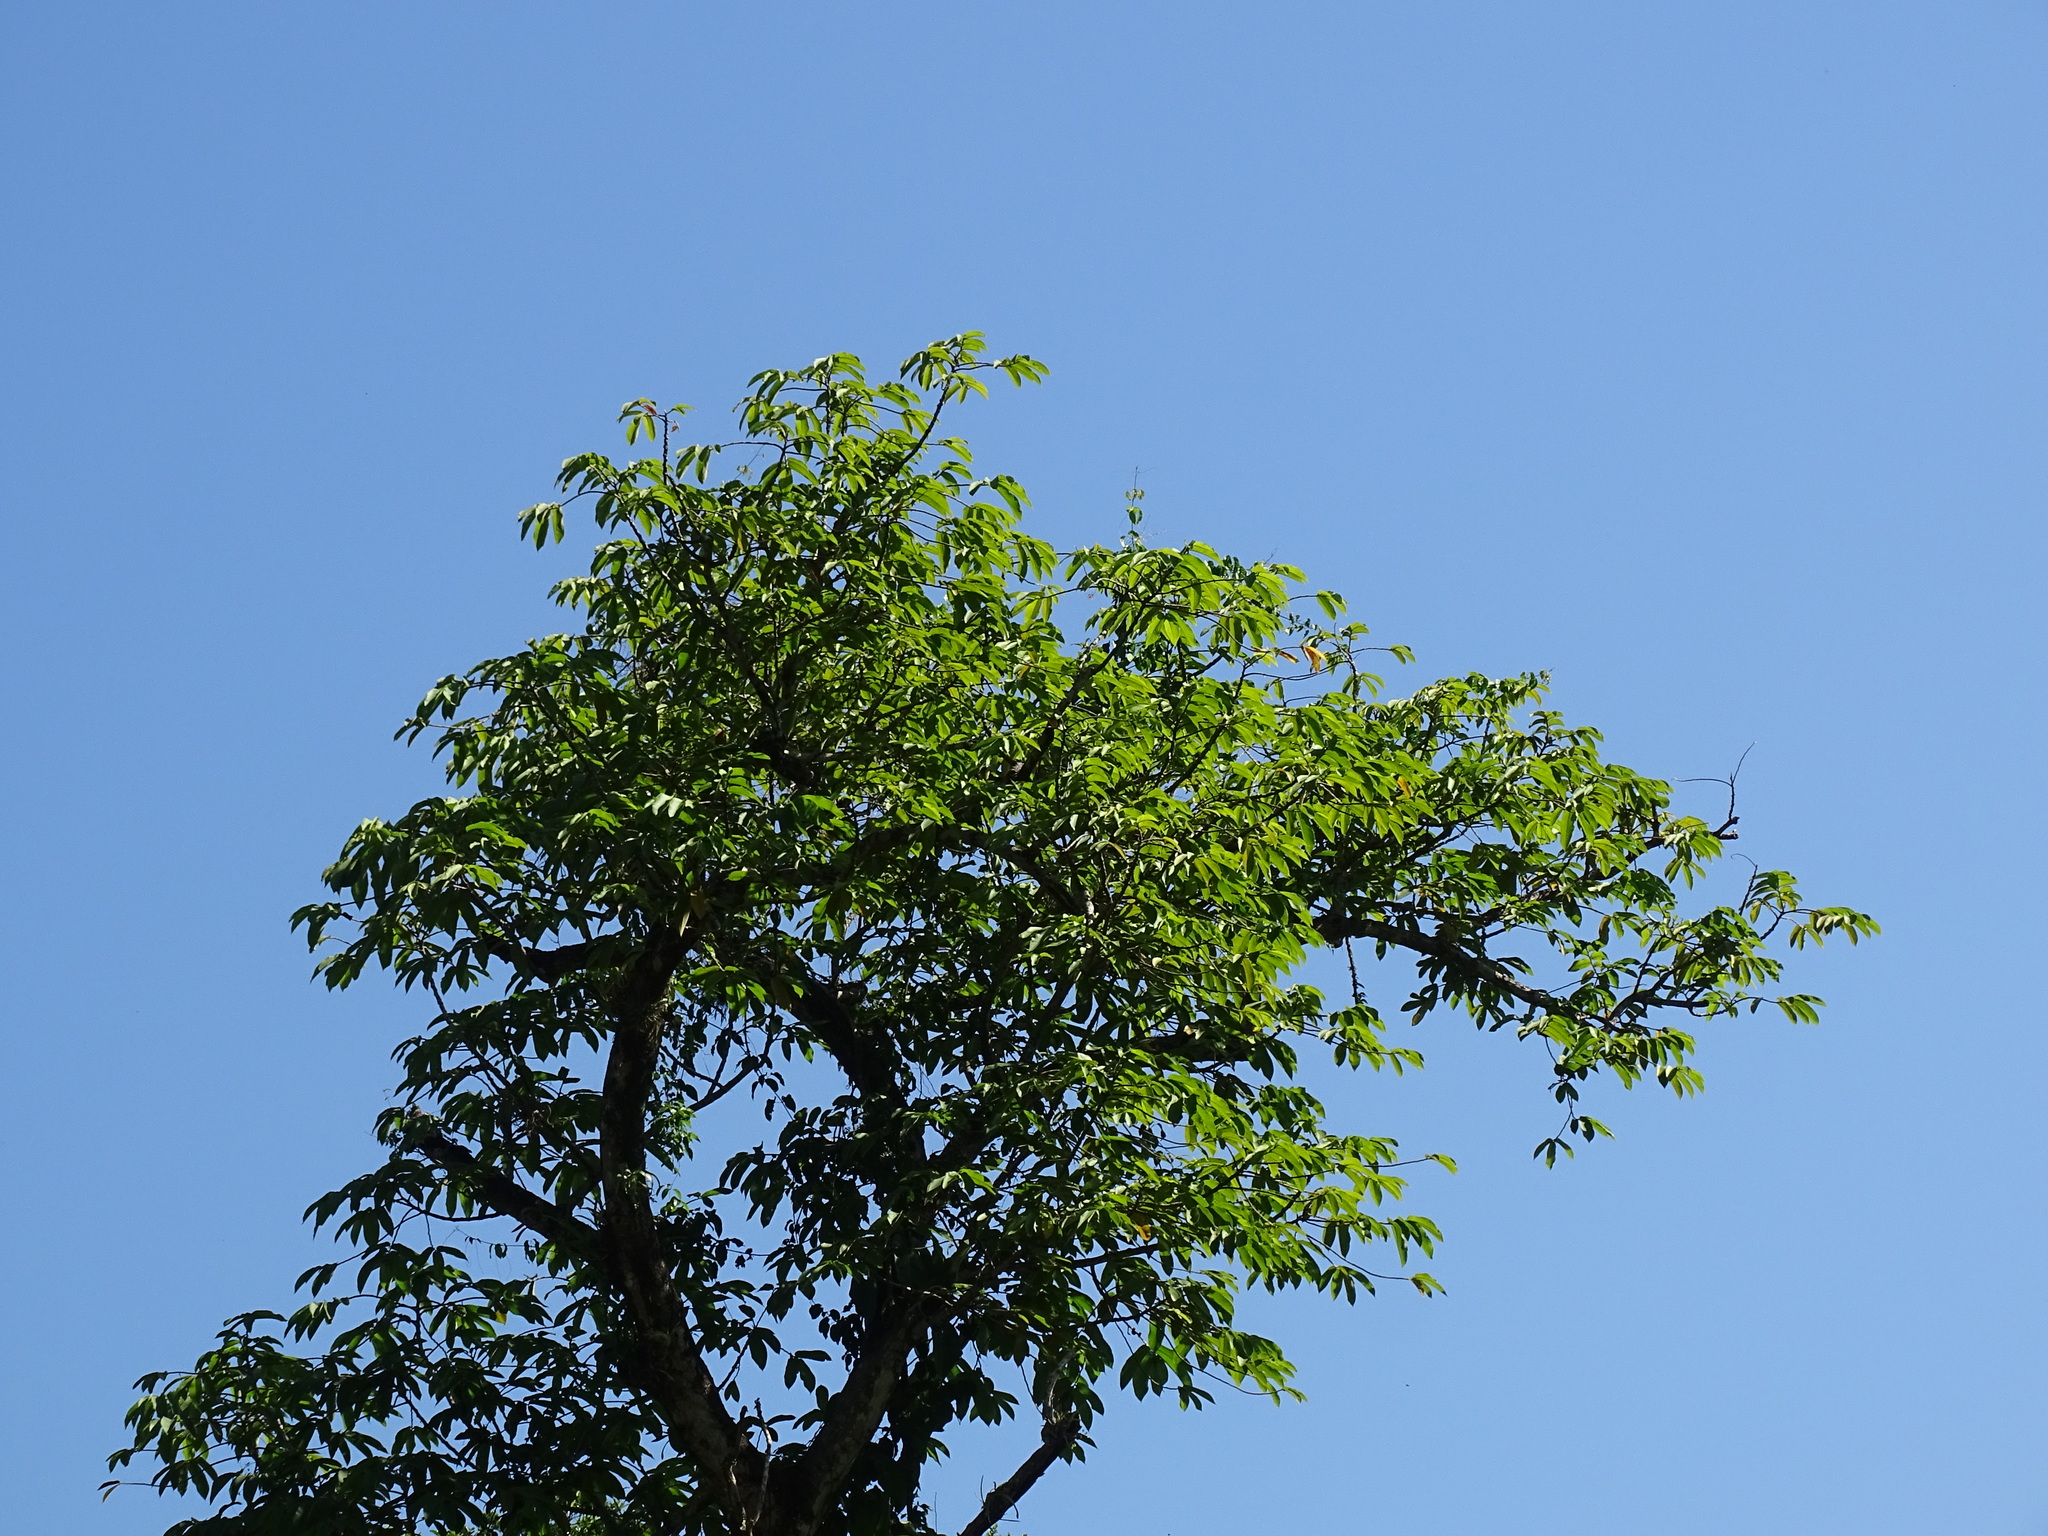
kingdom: Plantae
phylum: Tracheophyta
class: Magnoliopsida
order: Rosales
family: Moraceae
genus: Castilla
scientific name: Castilla elastica
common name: Castilla rubber
